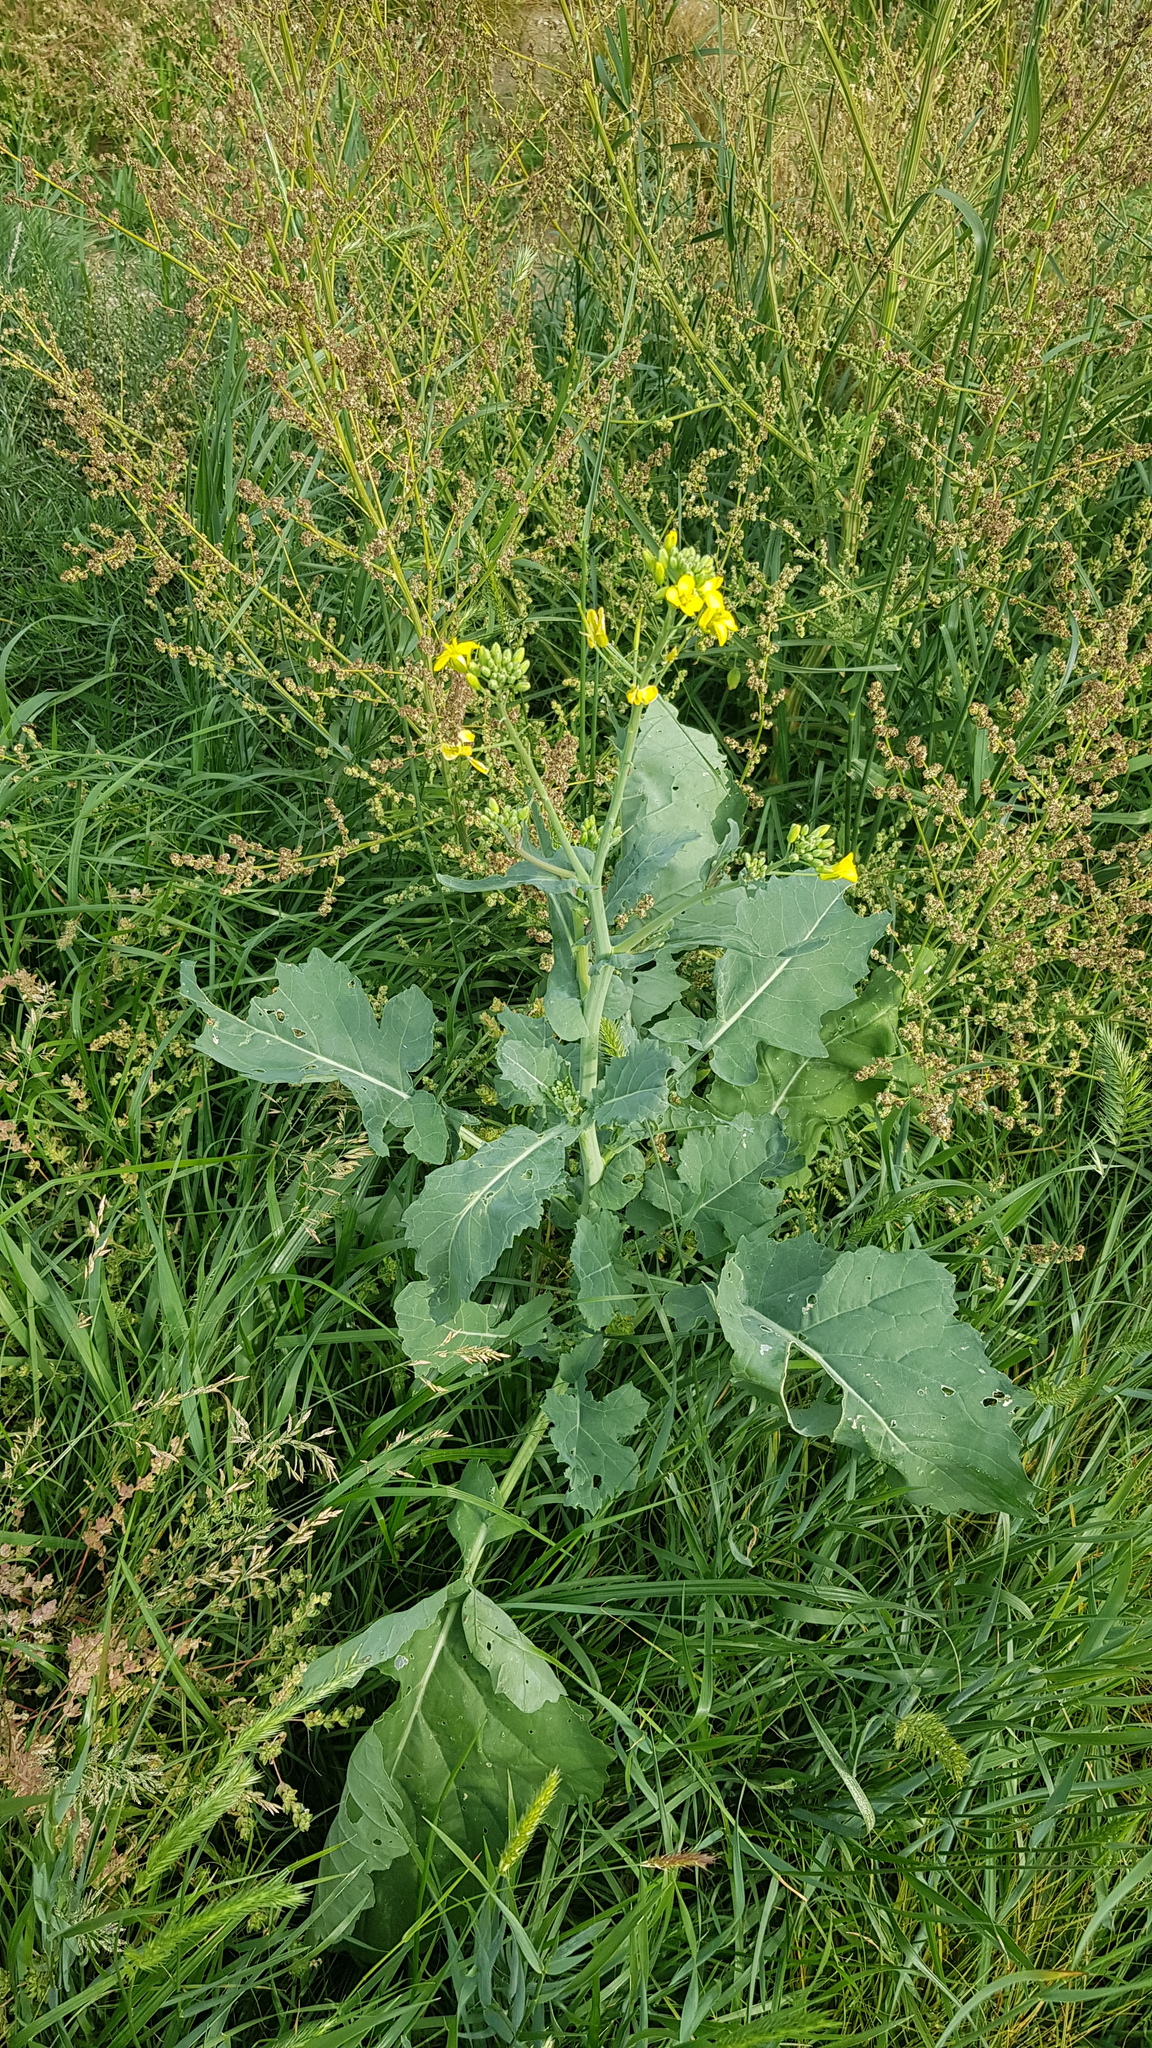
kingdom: Plantae
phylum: Tracheophyta
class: Magnoliopsida
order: Brassicales
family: Brassicaceae
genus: Brassica
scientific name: Brassica napus
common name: Rape
